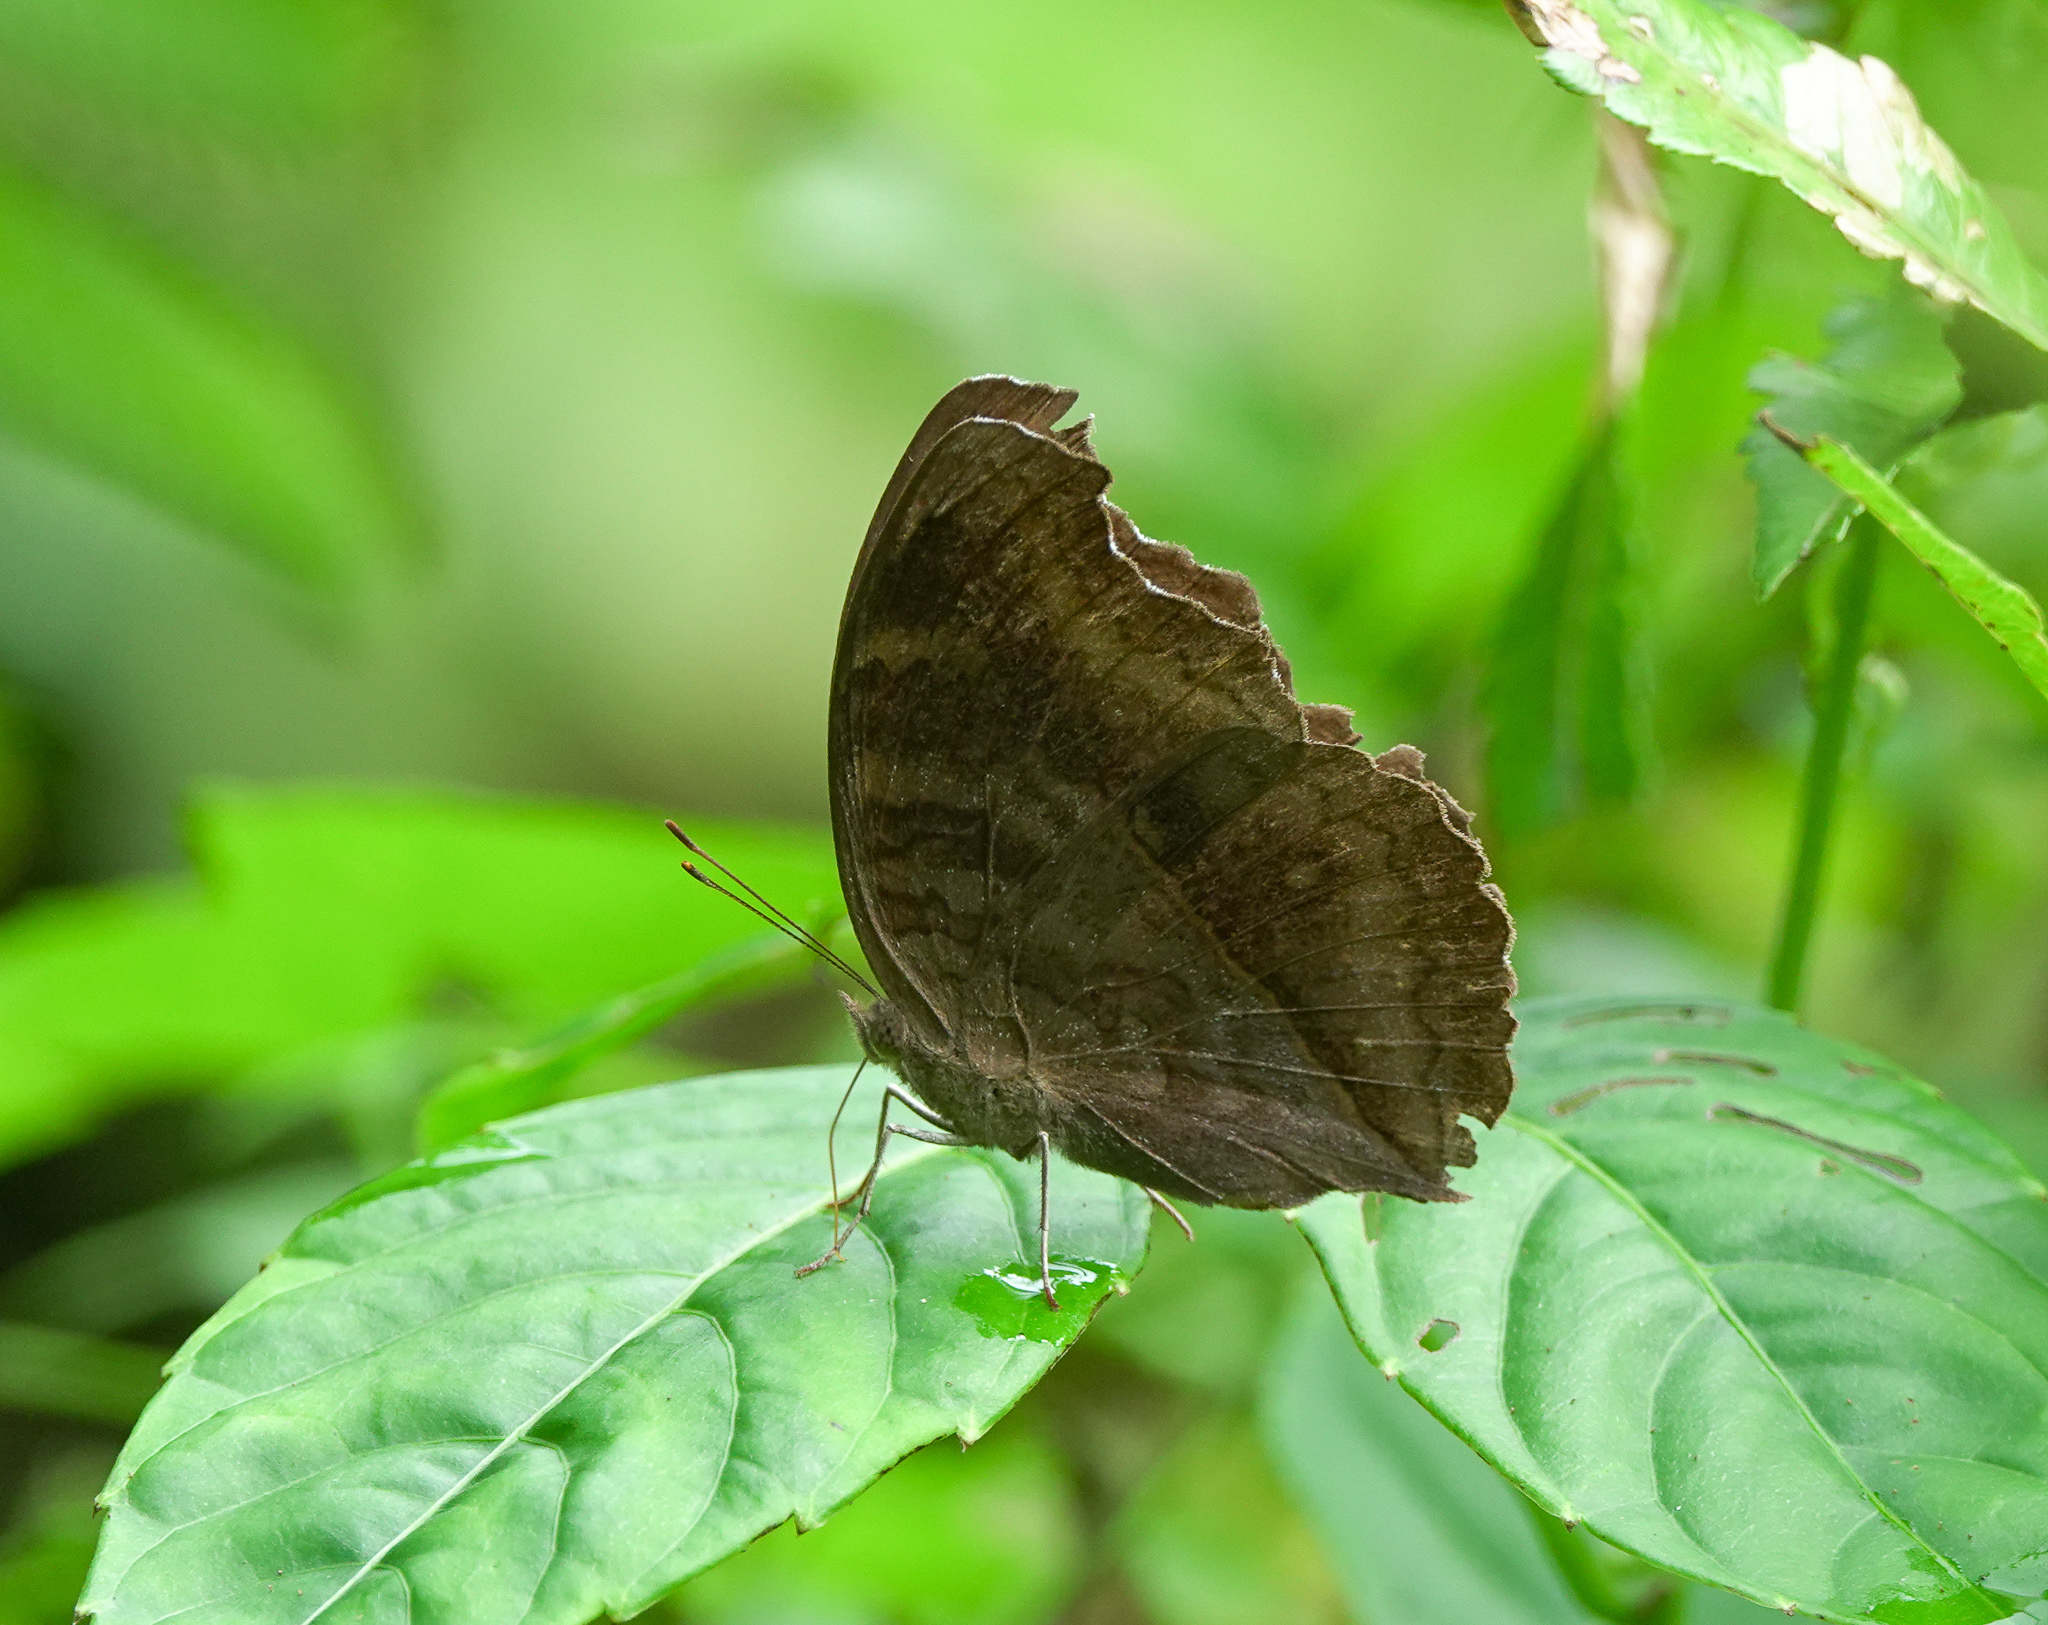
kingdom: Animalia
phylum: Arthropoda
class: Insecta
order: Lepidoptera
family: Nymphalidae
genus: Junonia
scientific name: Junonia iphita
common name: Chocolate pansy
